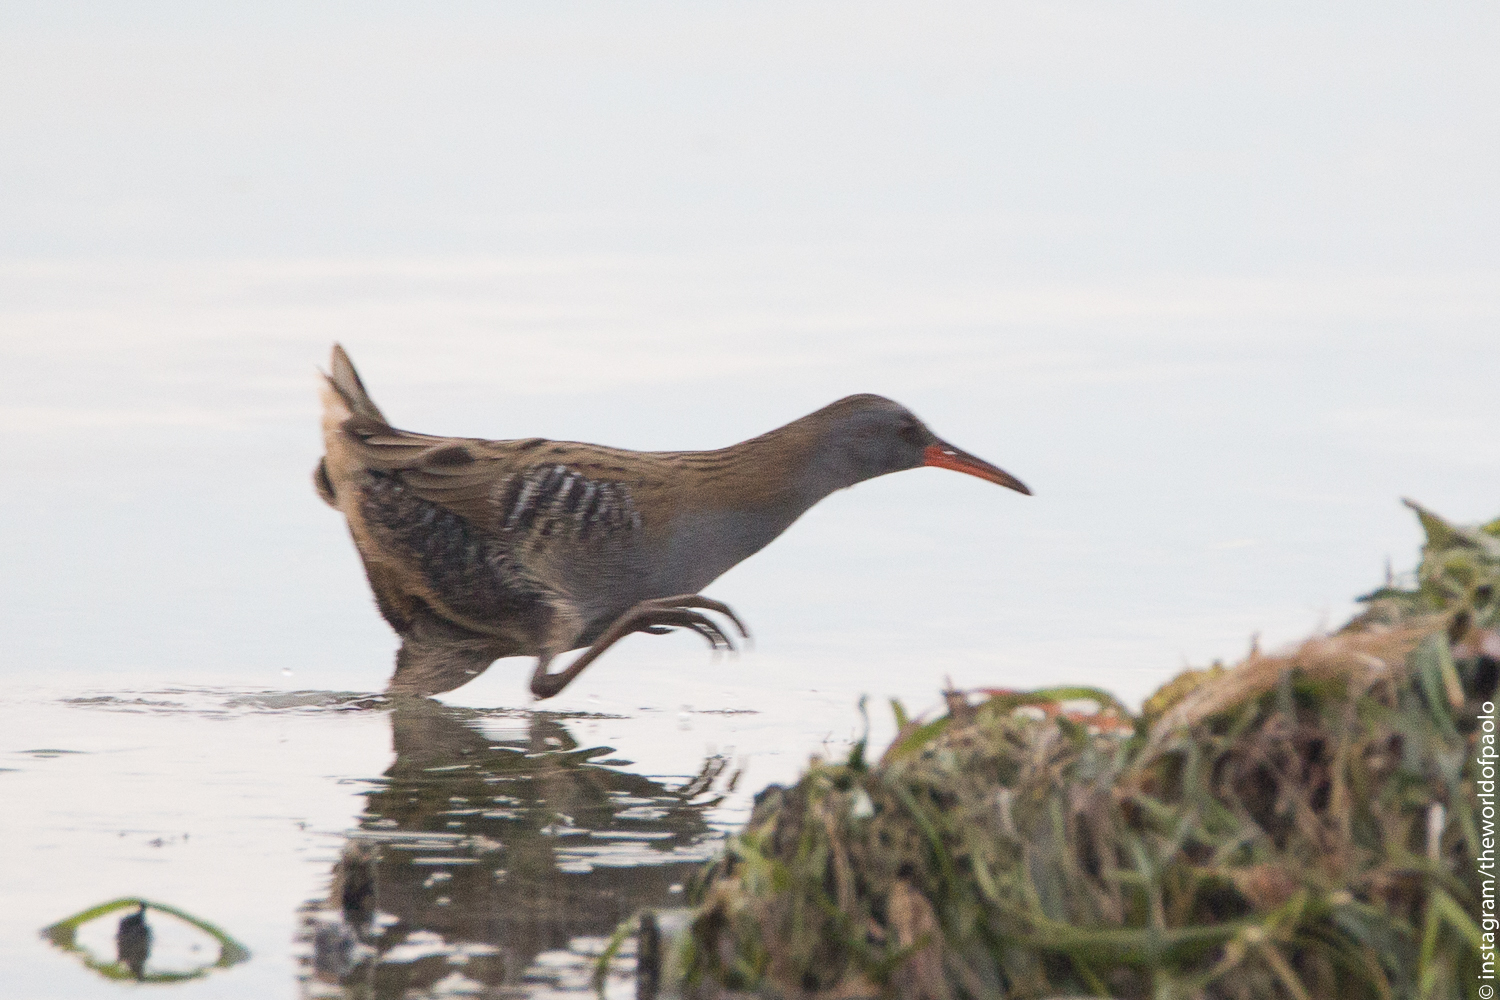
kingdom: Animalia
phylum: Chordata
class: Aves
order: Gruiformes
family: Rallidae
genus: Rallus
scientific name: Rallus aquaticus
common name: Water rail
